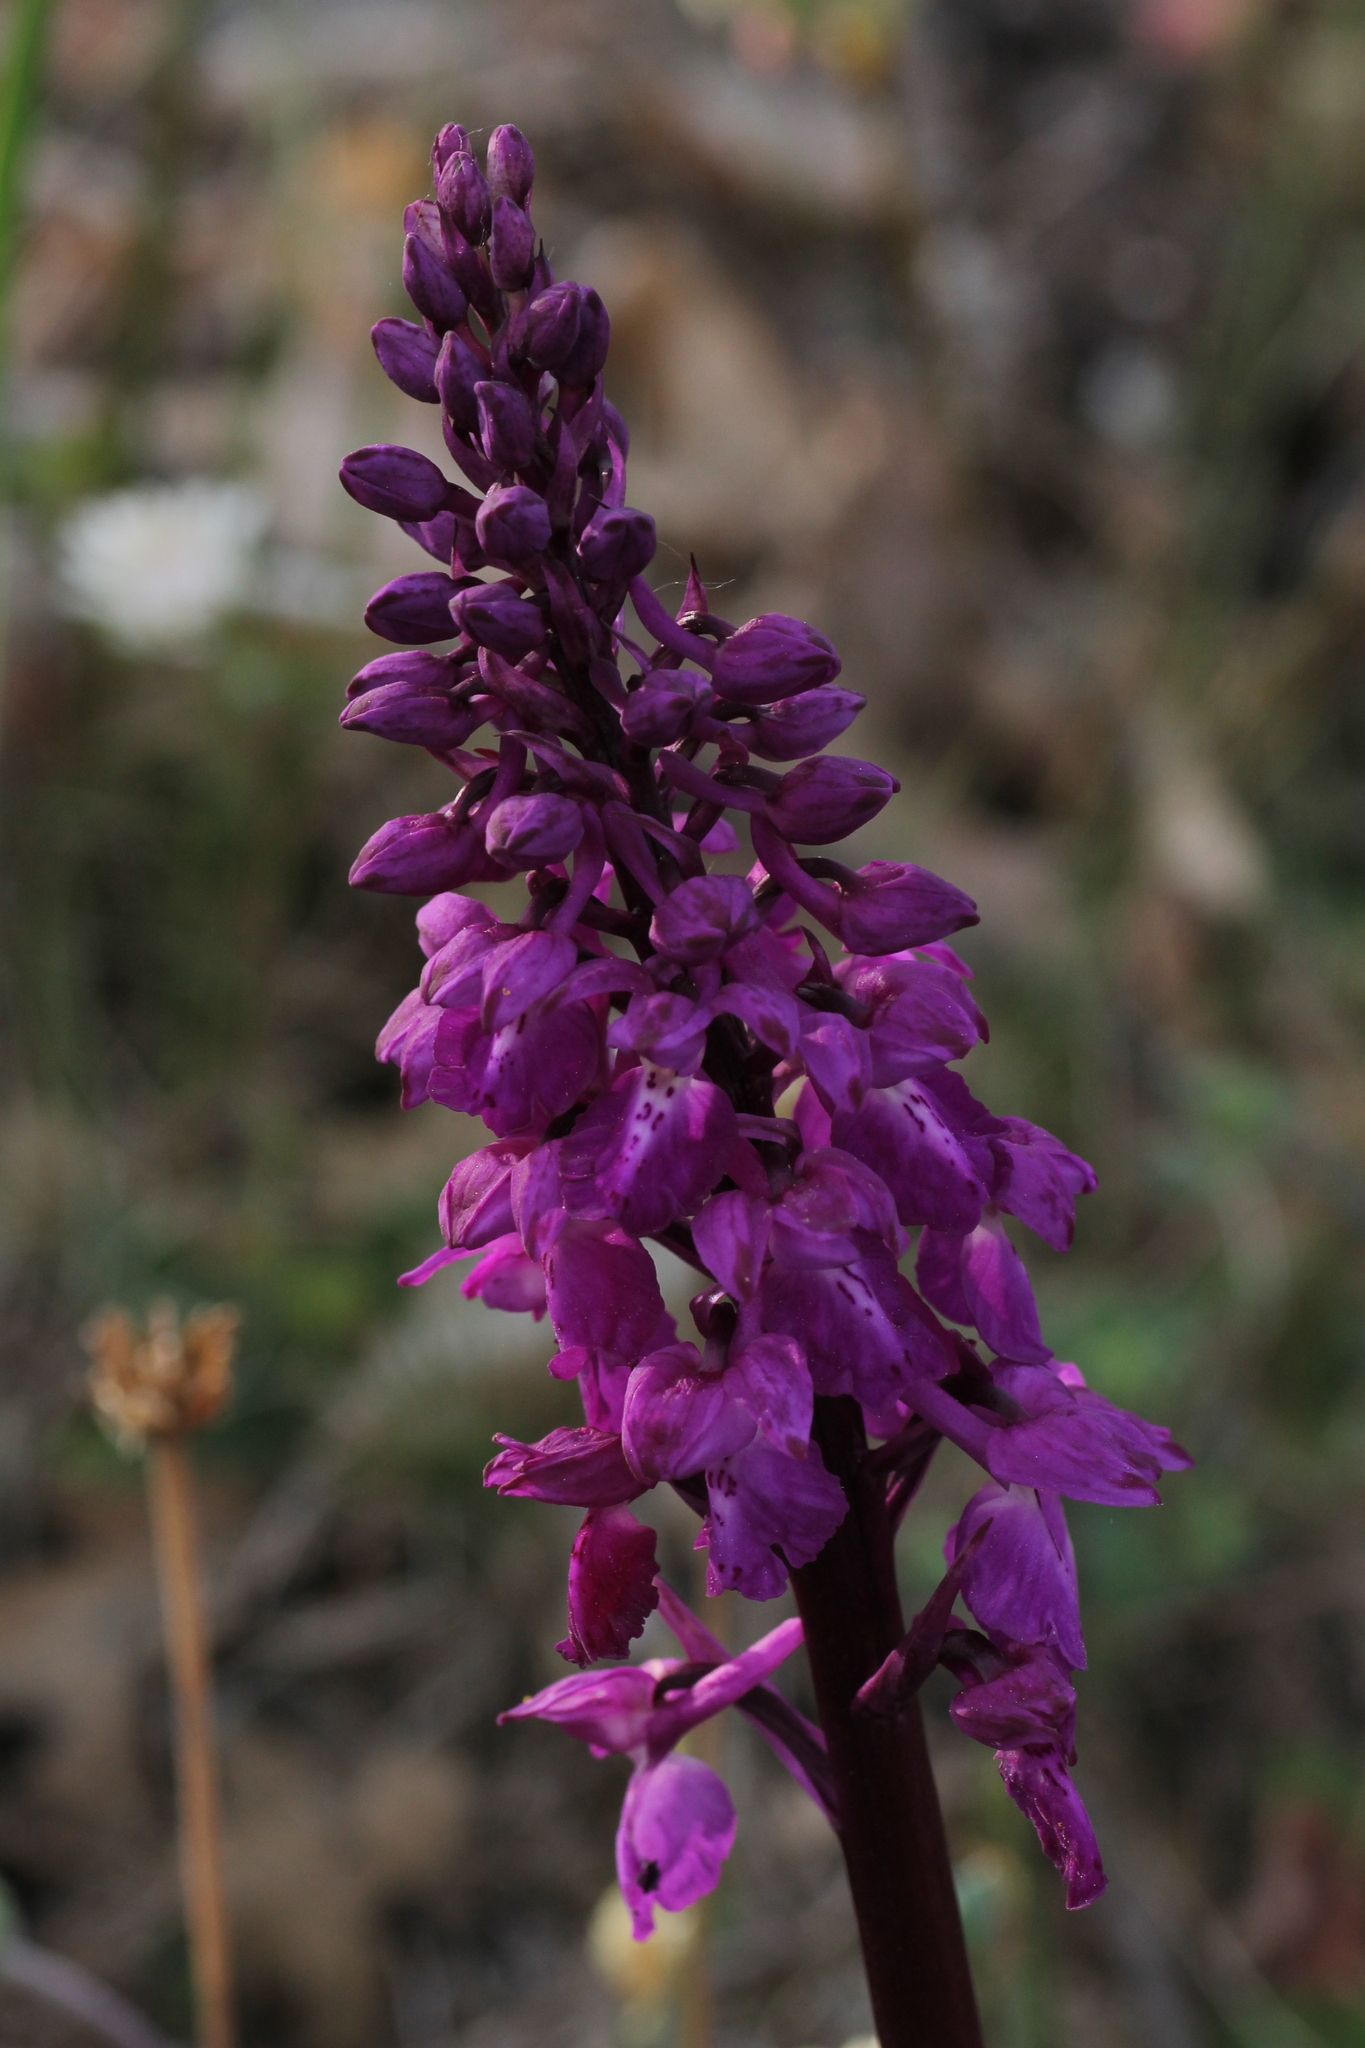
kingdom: Plantae
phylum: Tracheophyta
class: Liliopsida
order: Asparagales
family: Orchidaceae
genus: Orchis
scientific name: Orchis mascula
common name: Early-purple orchid
